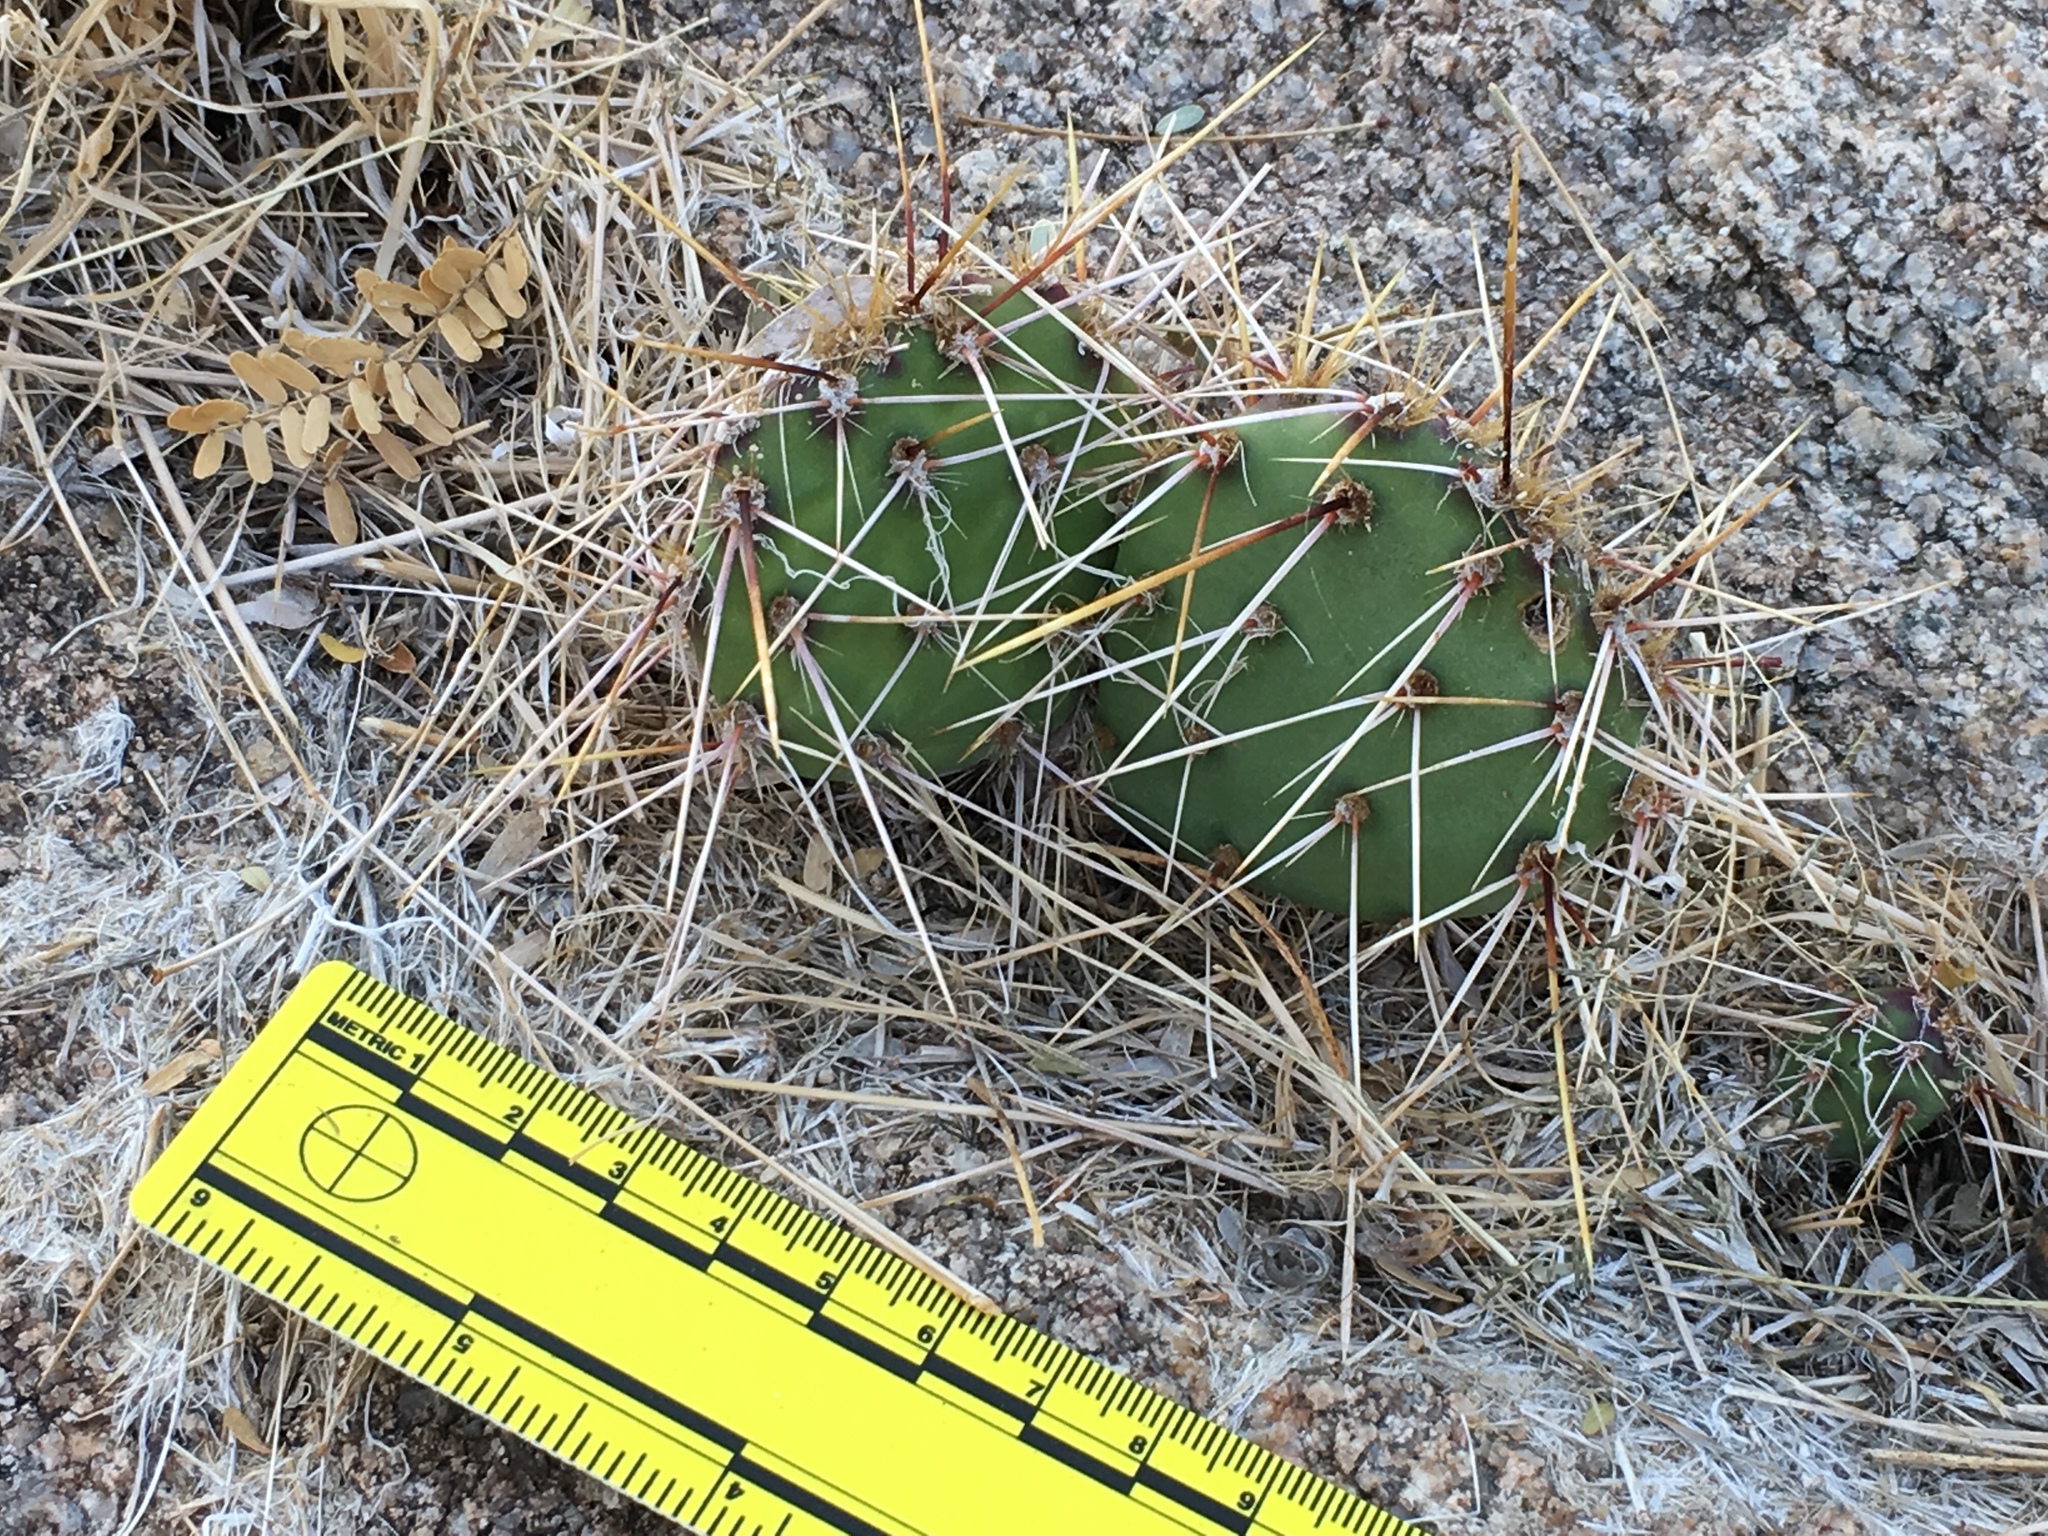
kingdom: Plantae
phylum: Tracheophyta
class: Magnoliopsida
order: Caryophyllales
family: Cactaceae
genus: Opuntia
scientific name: Opuntia phaeacantha
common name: New mexico prickly-pear
